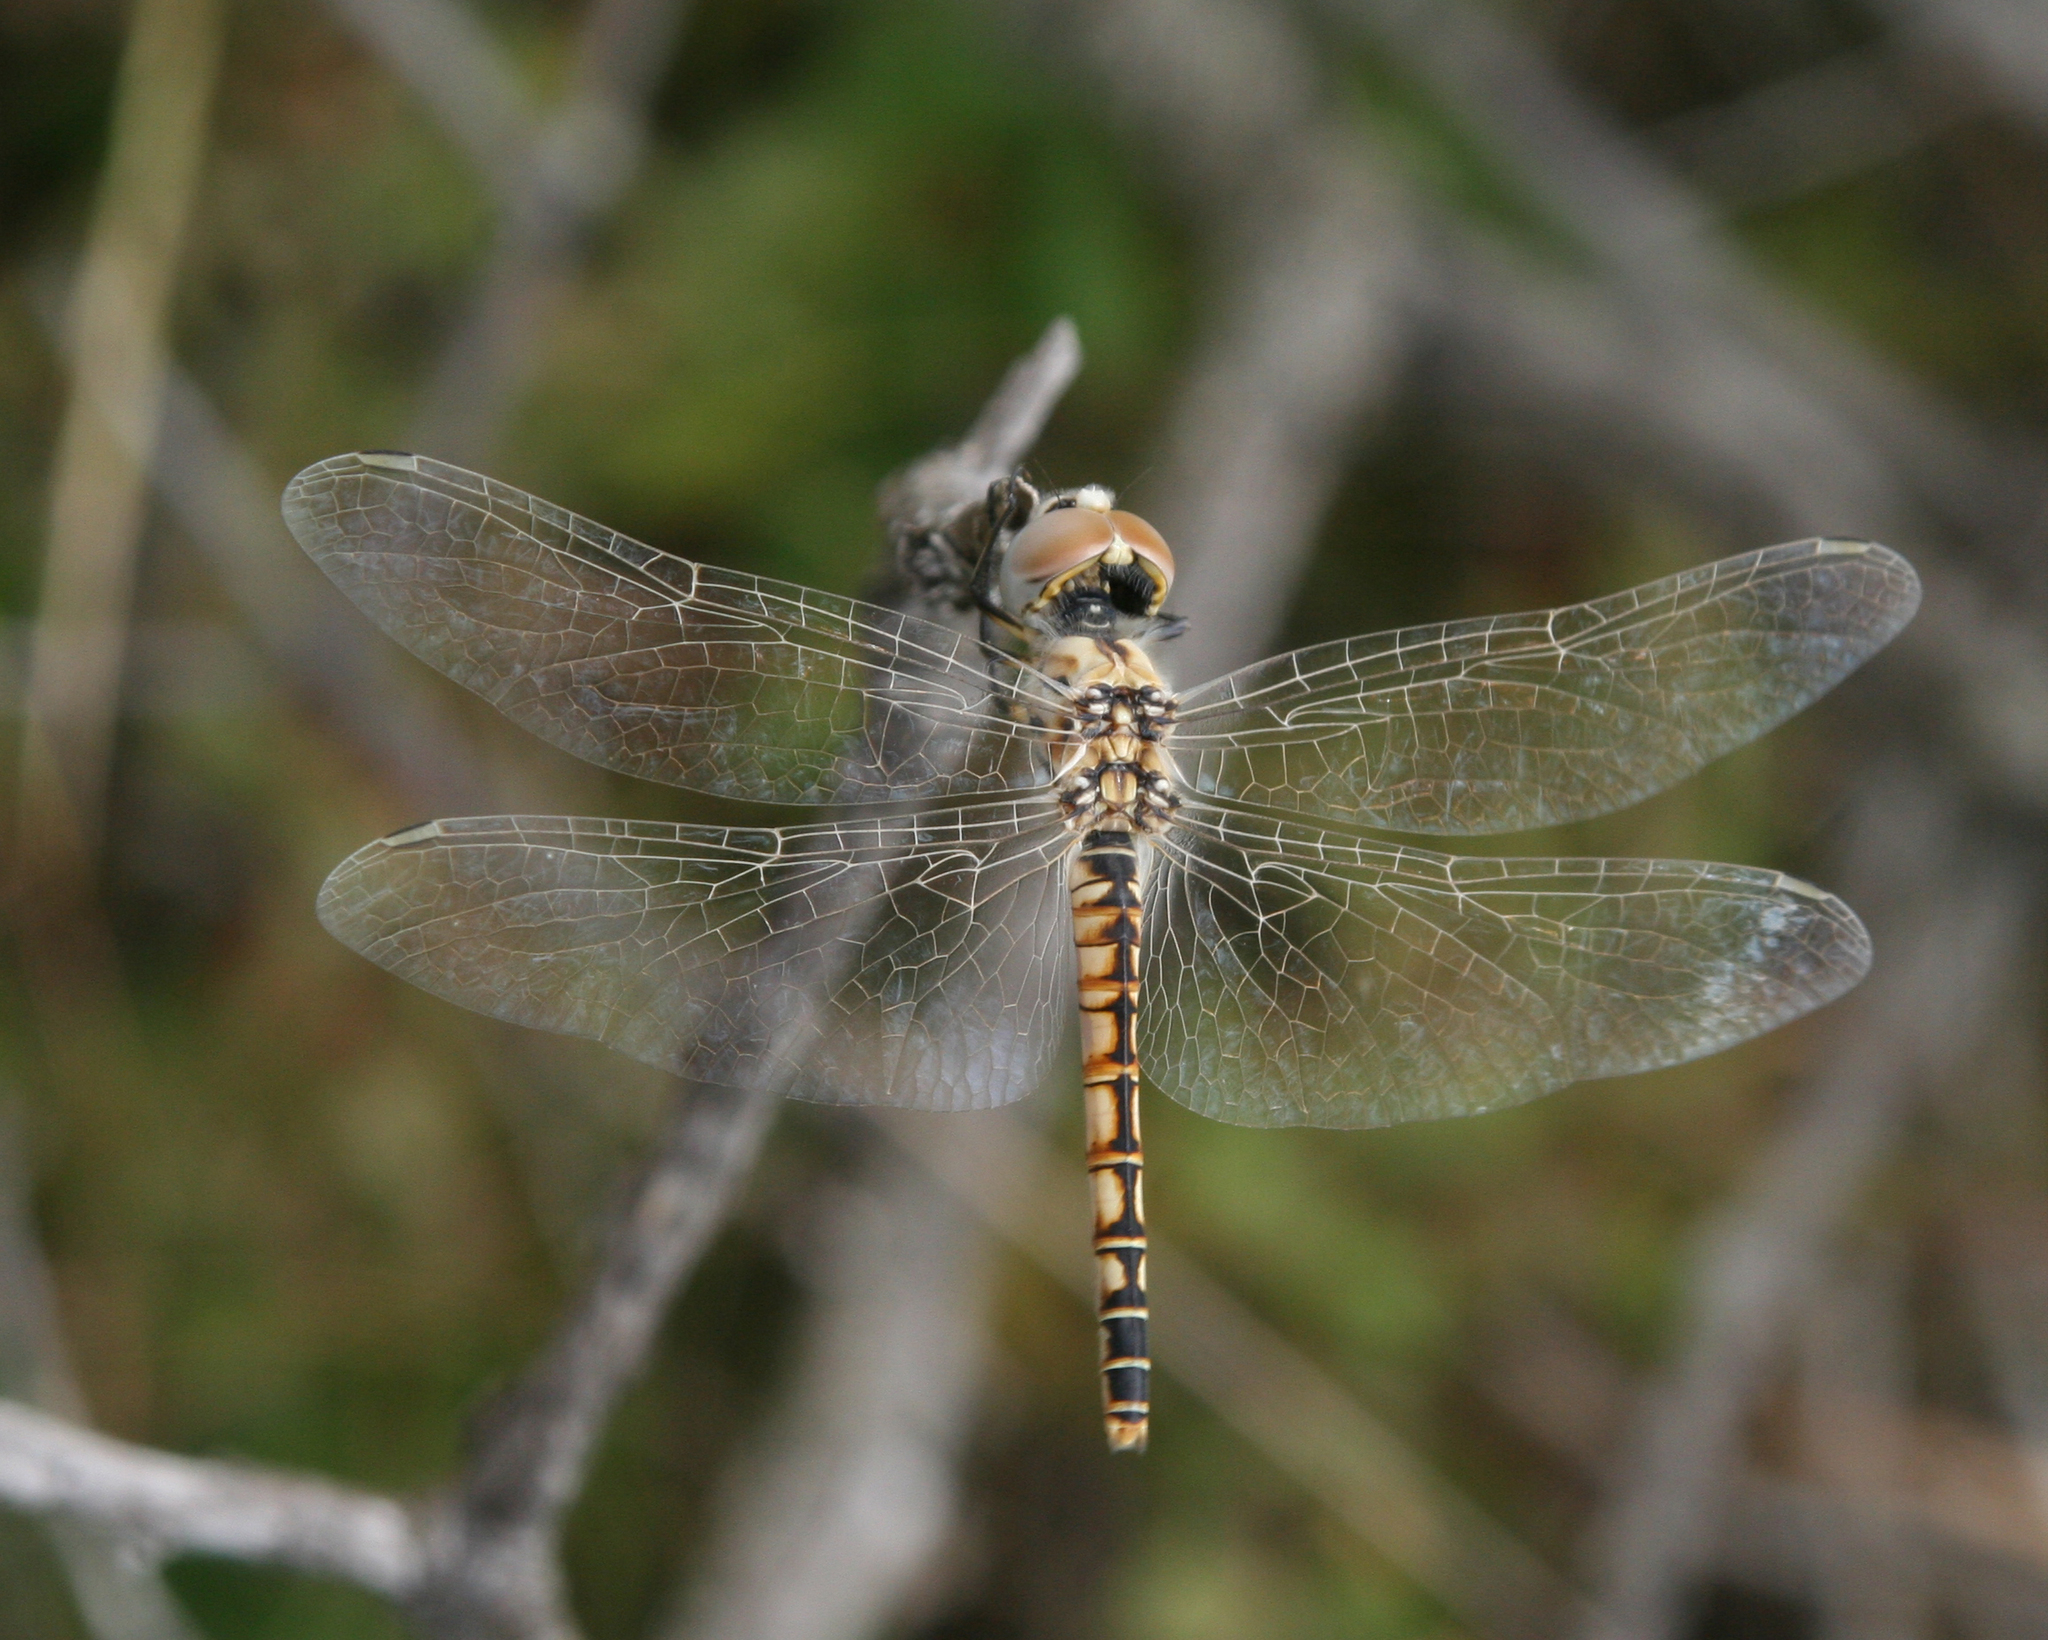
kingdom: Animalia
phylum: Arthropoda
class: Insecta
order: Odonata
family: Libellulidae
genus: Selysiothemis
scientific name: Selysiothemis nigra
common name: Black pennant
